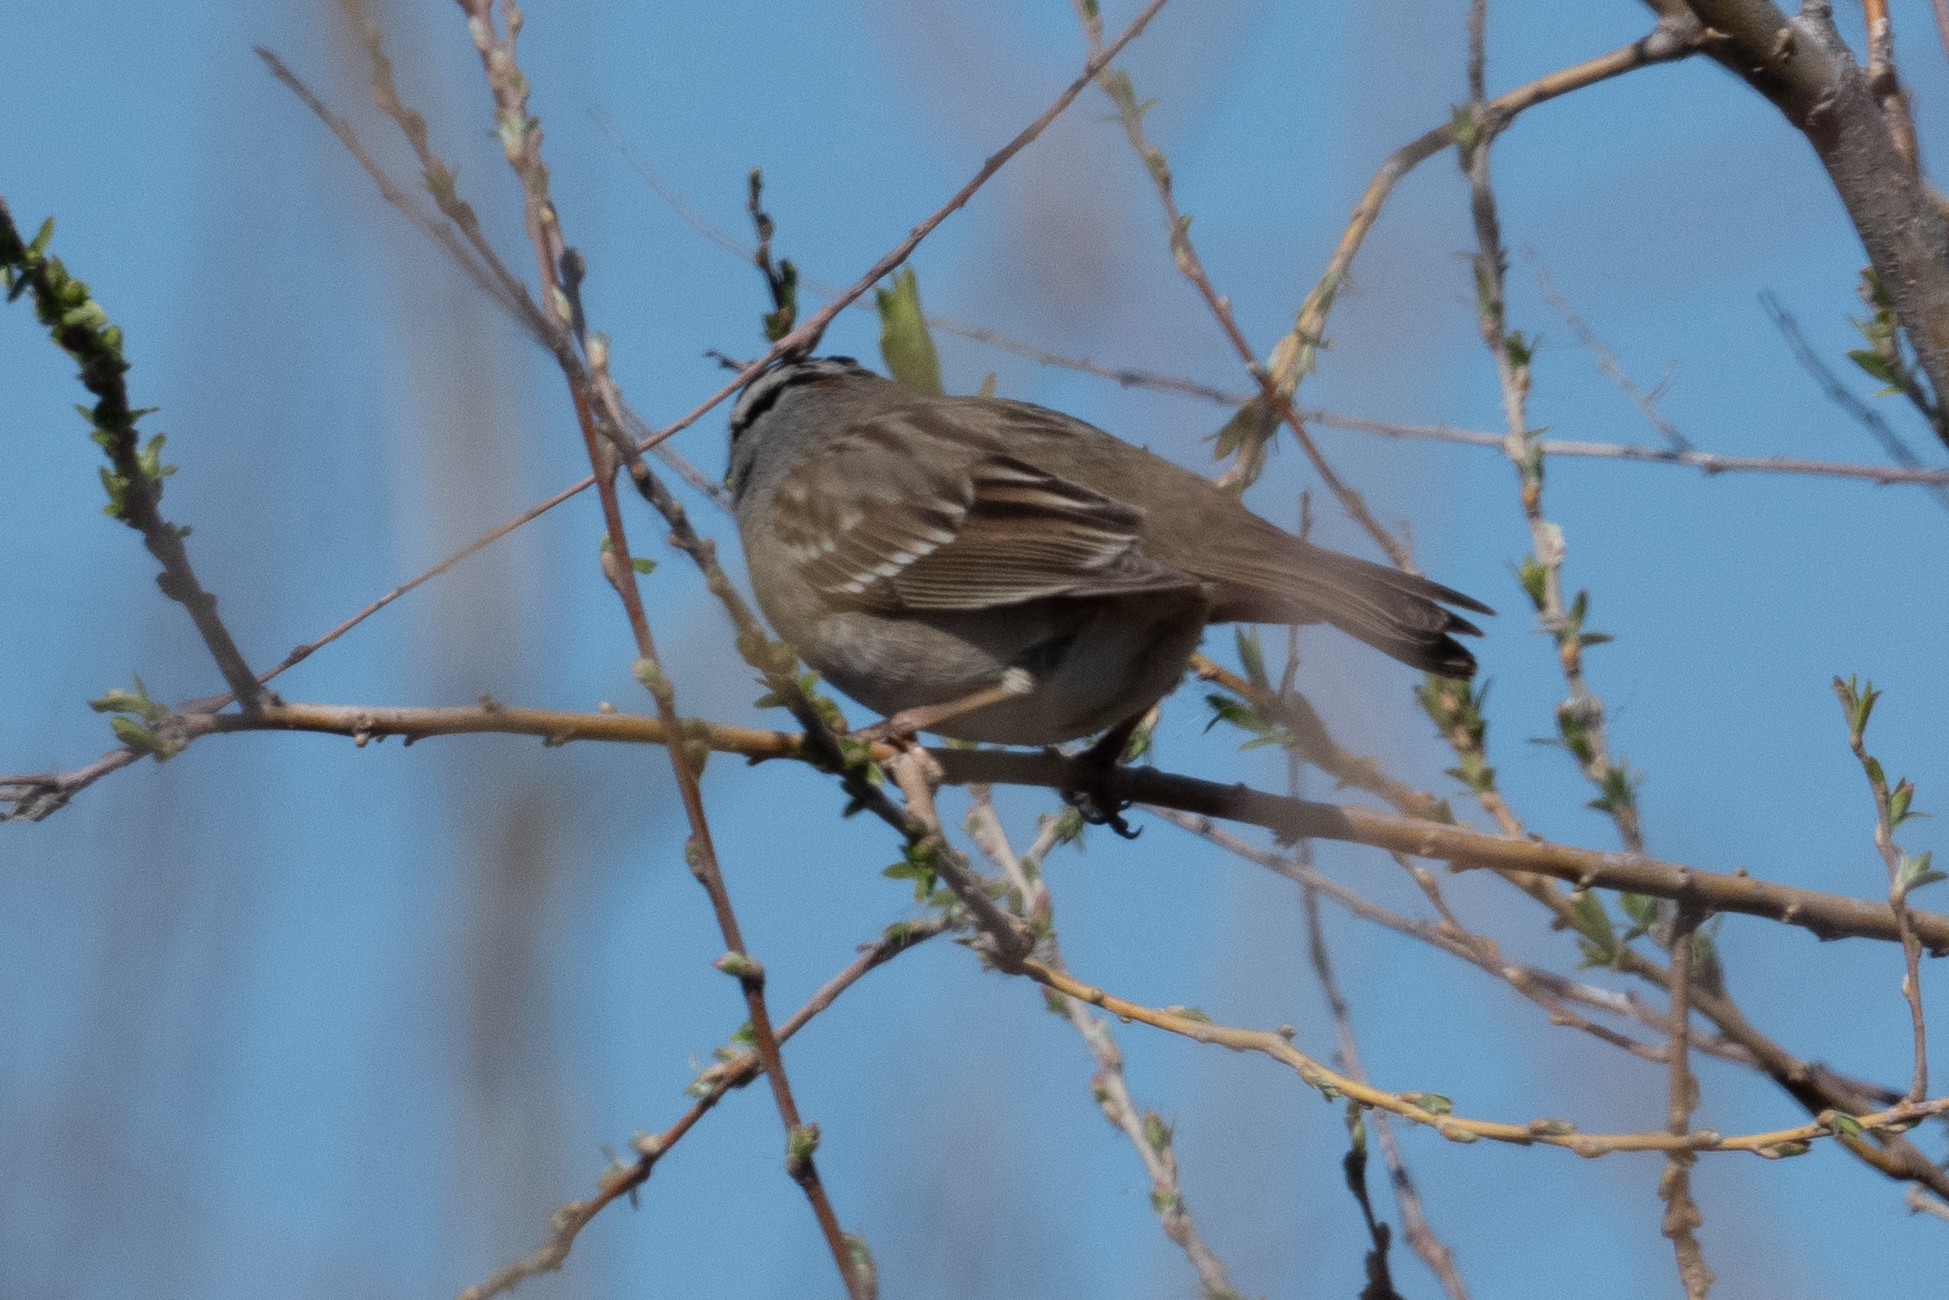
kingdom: Animalia
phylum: Chordata
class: Aves
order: Passeriformes
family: Passerellidae
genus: Zonotrichia
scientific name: Zonotrichia leucophrys
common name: White-crowned sparrow
